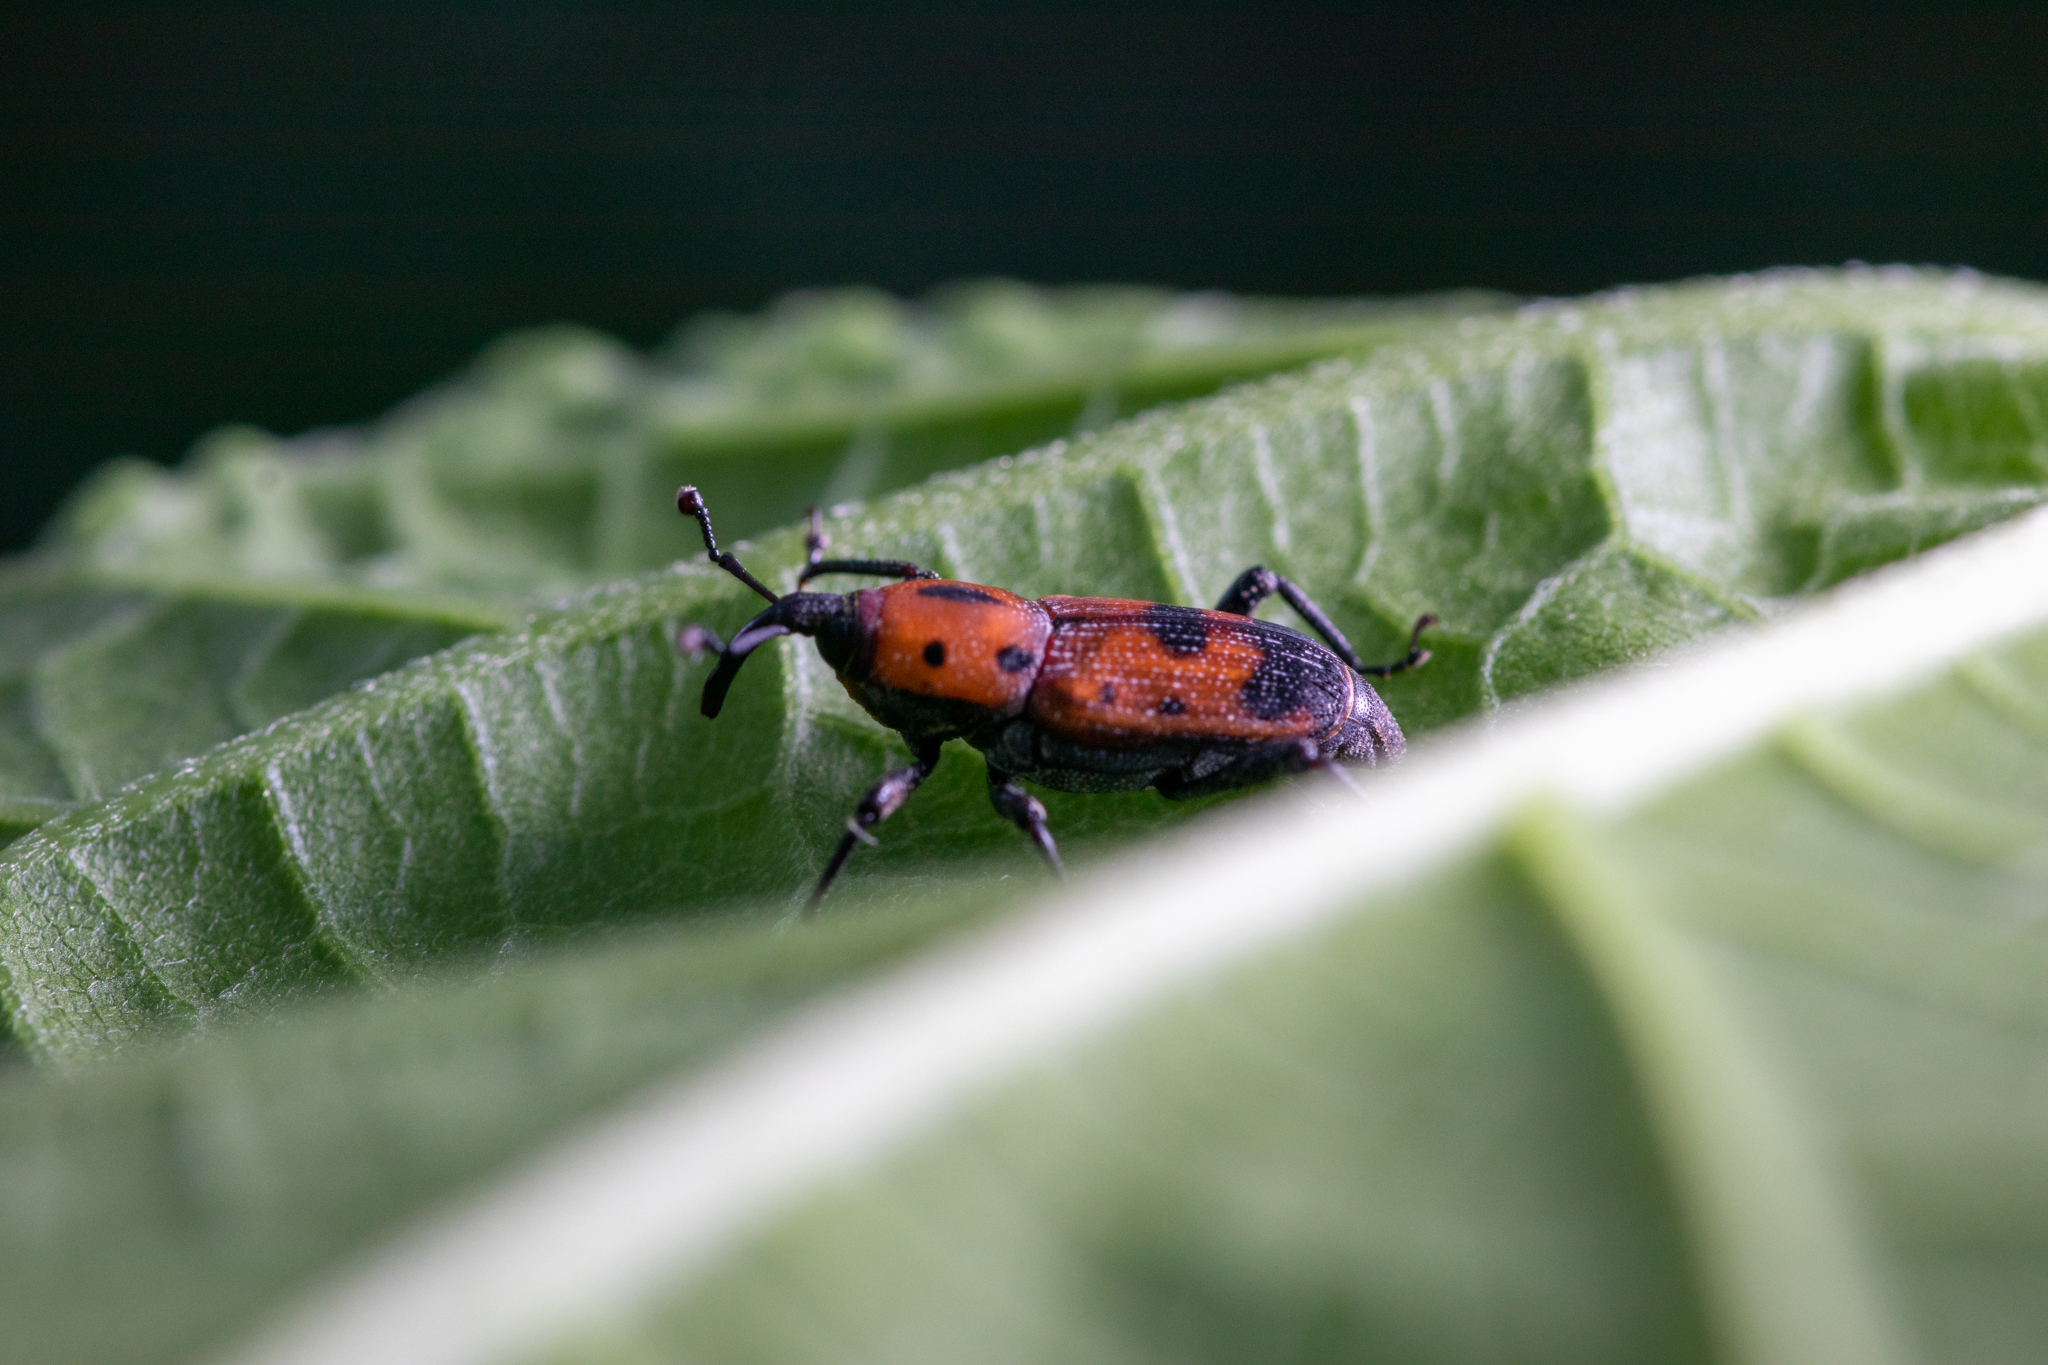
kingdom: Animalia
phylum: Arthropoda
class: Insecta
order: Coleoptera
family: Dryophthoridae
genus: Rhodobaenus
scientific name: Rhodobaenus quinquepunctatus
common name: Cocklebur weevil
